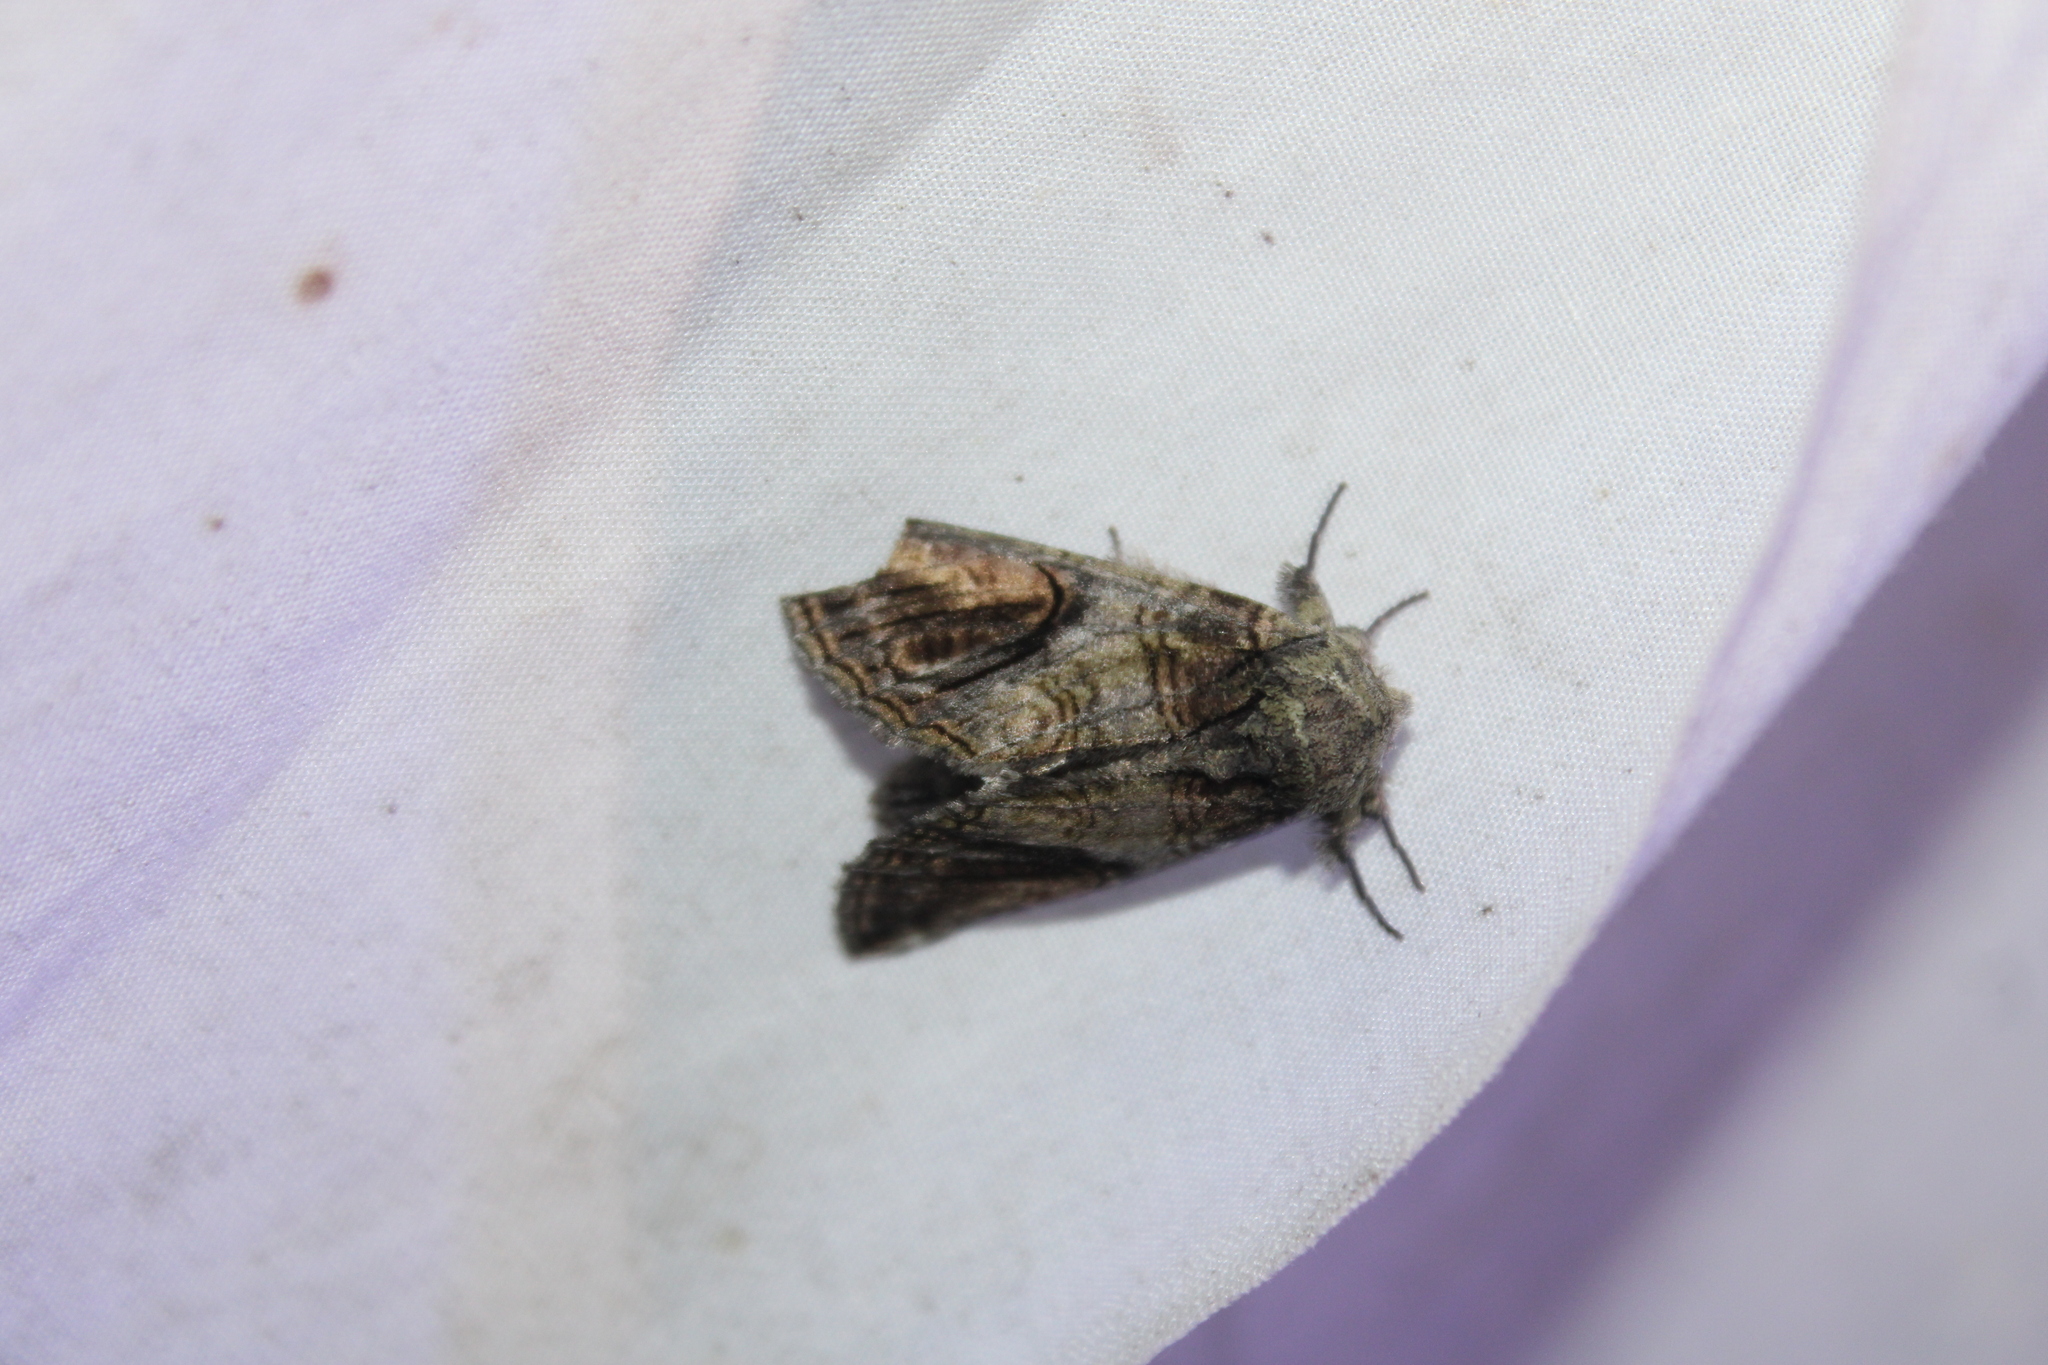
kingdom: Animalia
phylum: Arthropoda
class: Insecta
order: Lepidoptera
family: Notodontidae
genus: Heterocampa
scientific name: Heterocampa obliqua
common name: Oblique heterocampa
